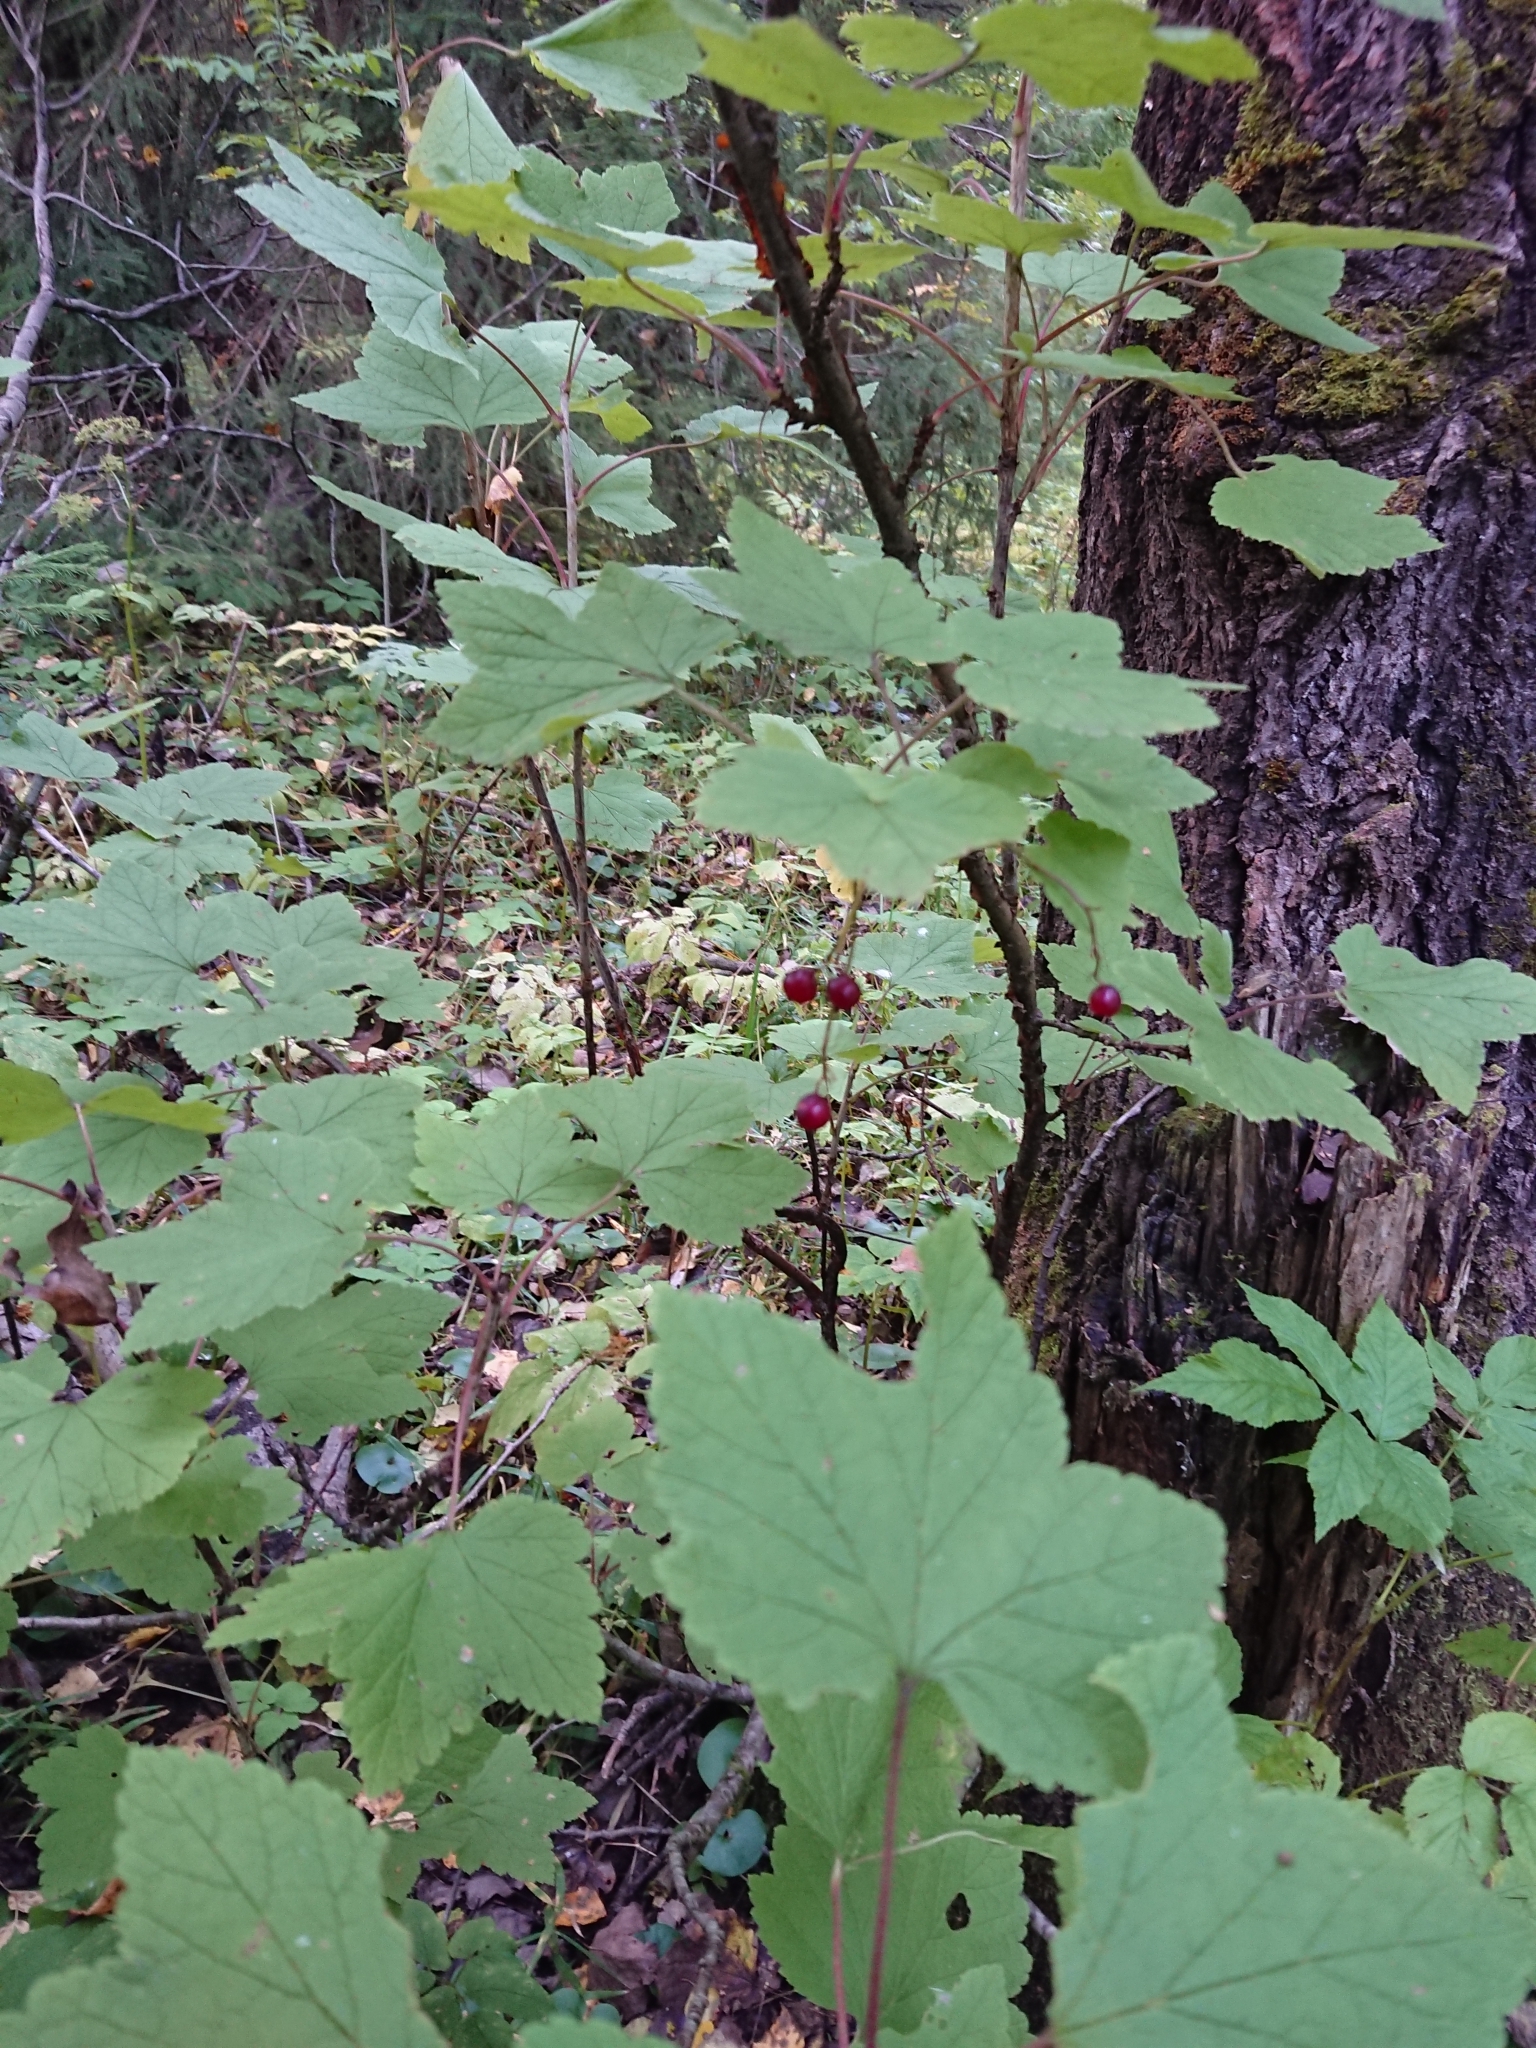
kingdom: Plantae
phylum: Tracheophyta
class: Magnoliopsida
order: Saxifragales
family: Grossulariaceae
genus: Ribes
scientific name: Ribes spicatum
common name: Downy currant
